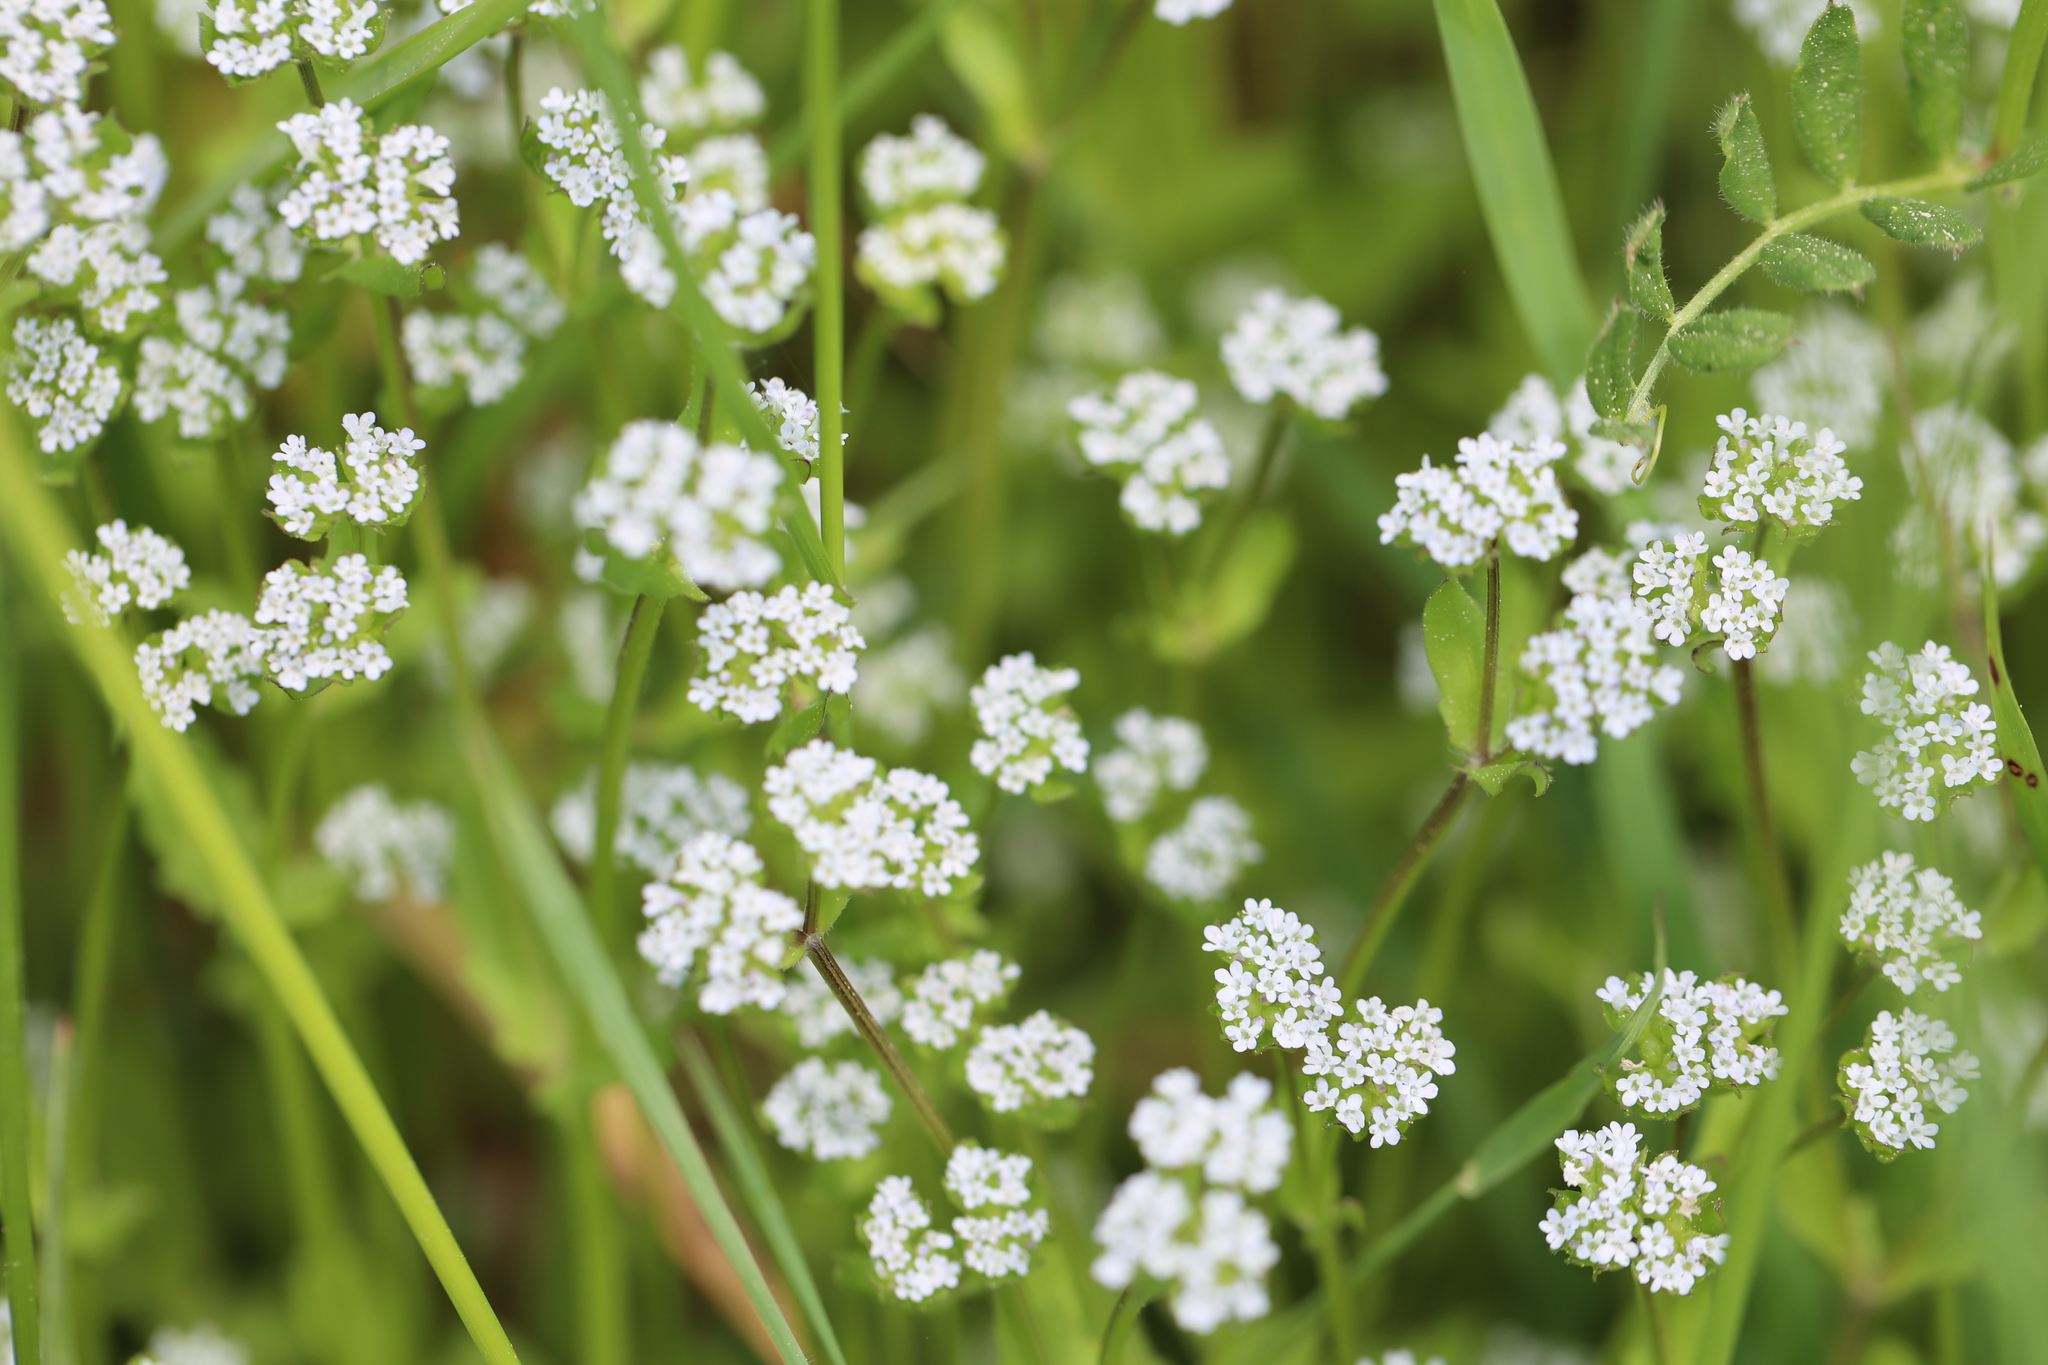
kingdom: Plantae
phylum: Tracheophyta
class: Magnoliopsida
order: Dipsacales
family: Caprifoliaceae
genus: Valerianella
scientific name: Valerianella locusta
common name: Common cornsalad
